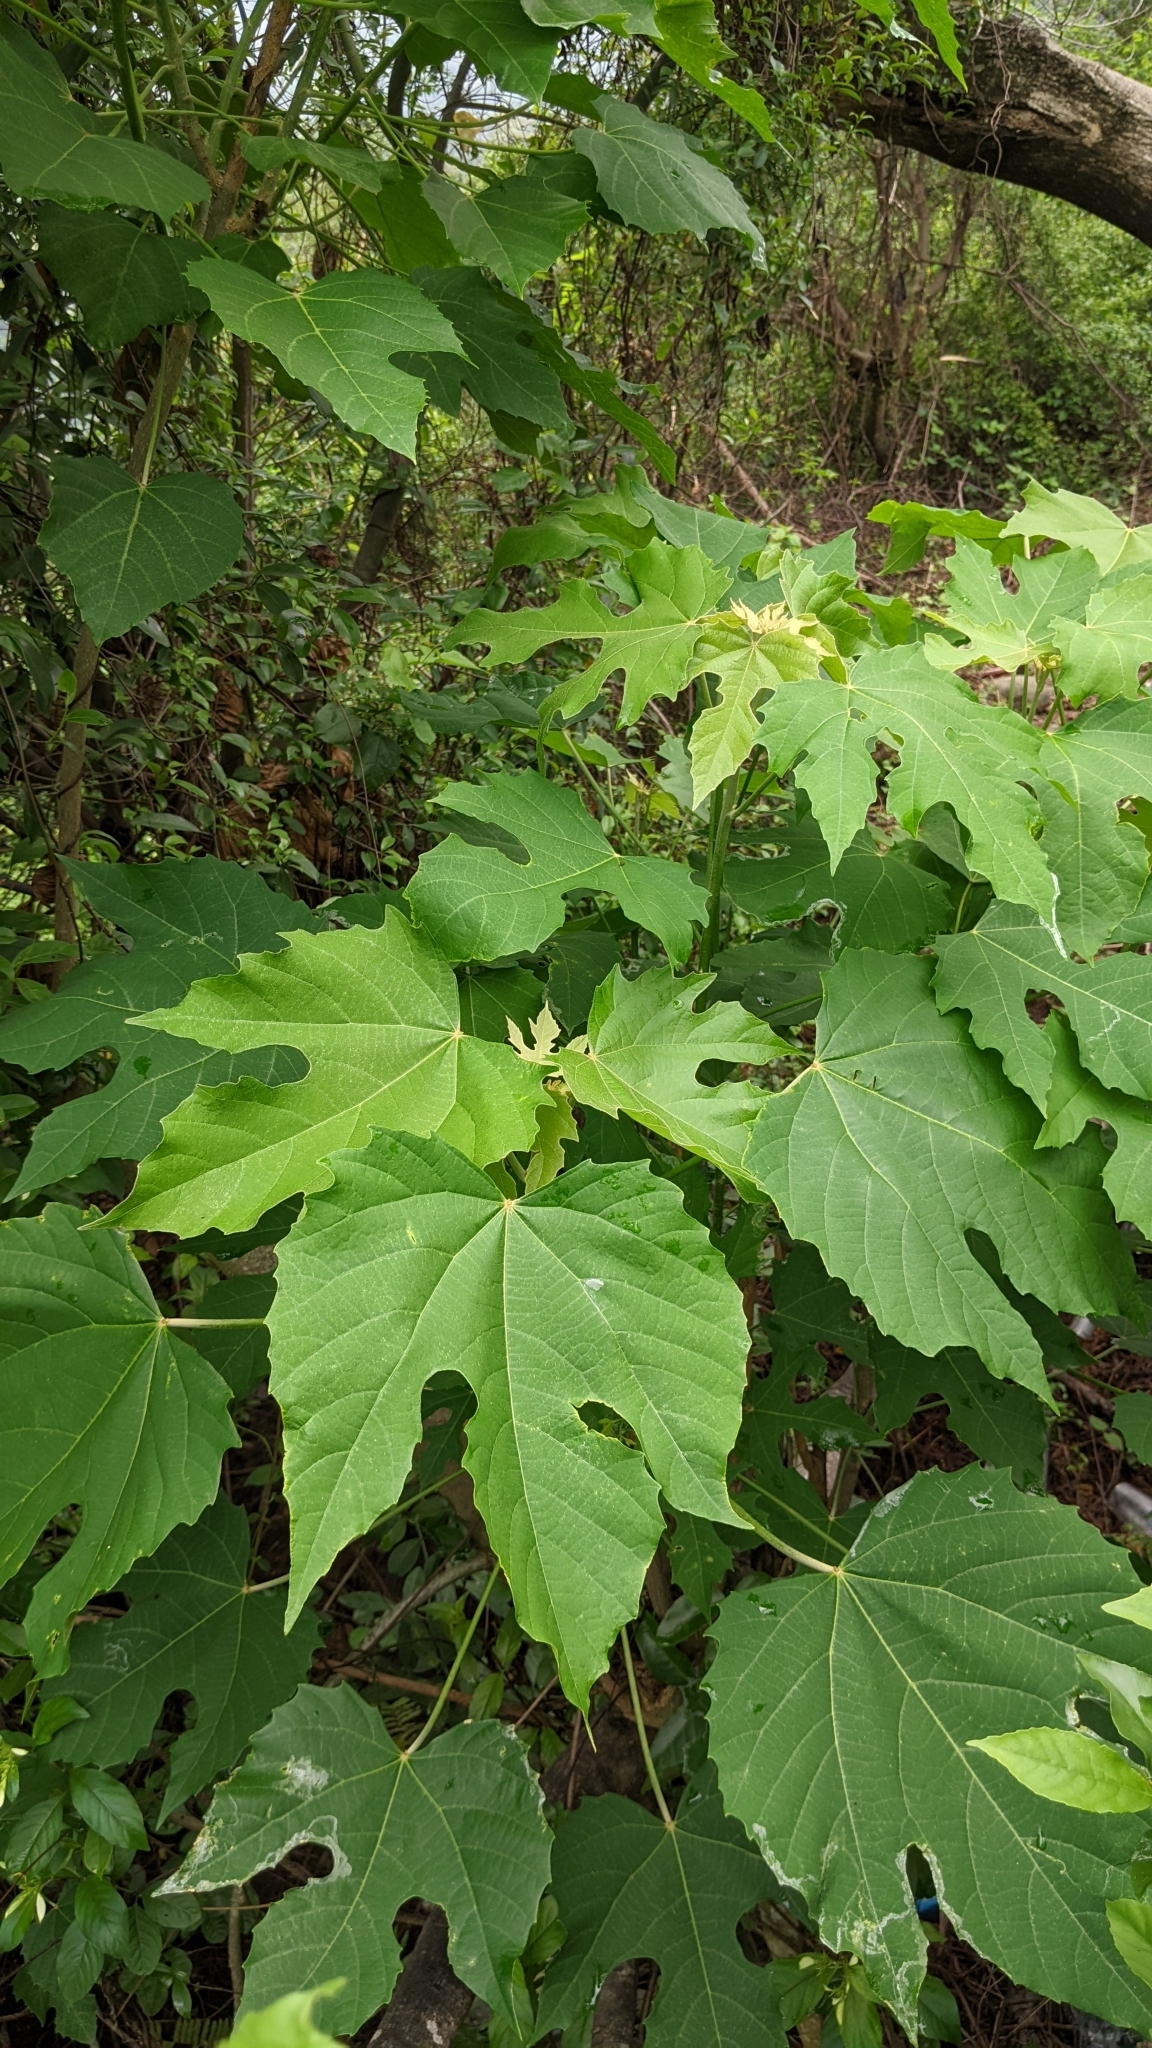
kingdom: Plantae
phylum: Tracheophyta
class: Magnoliopsida
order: Malpighiales
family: Euphorbiaceae
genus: Melanolepis
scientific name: Melanolepis multiglandulosa
